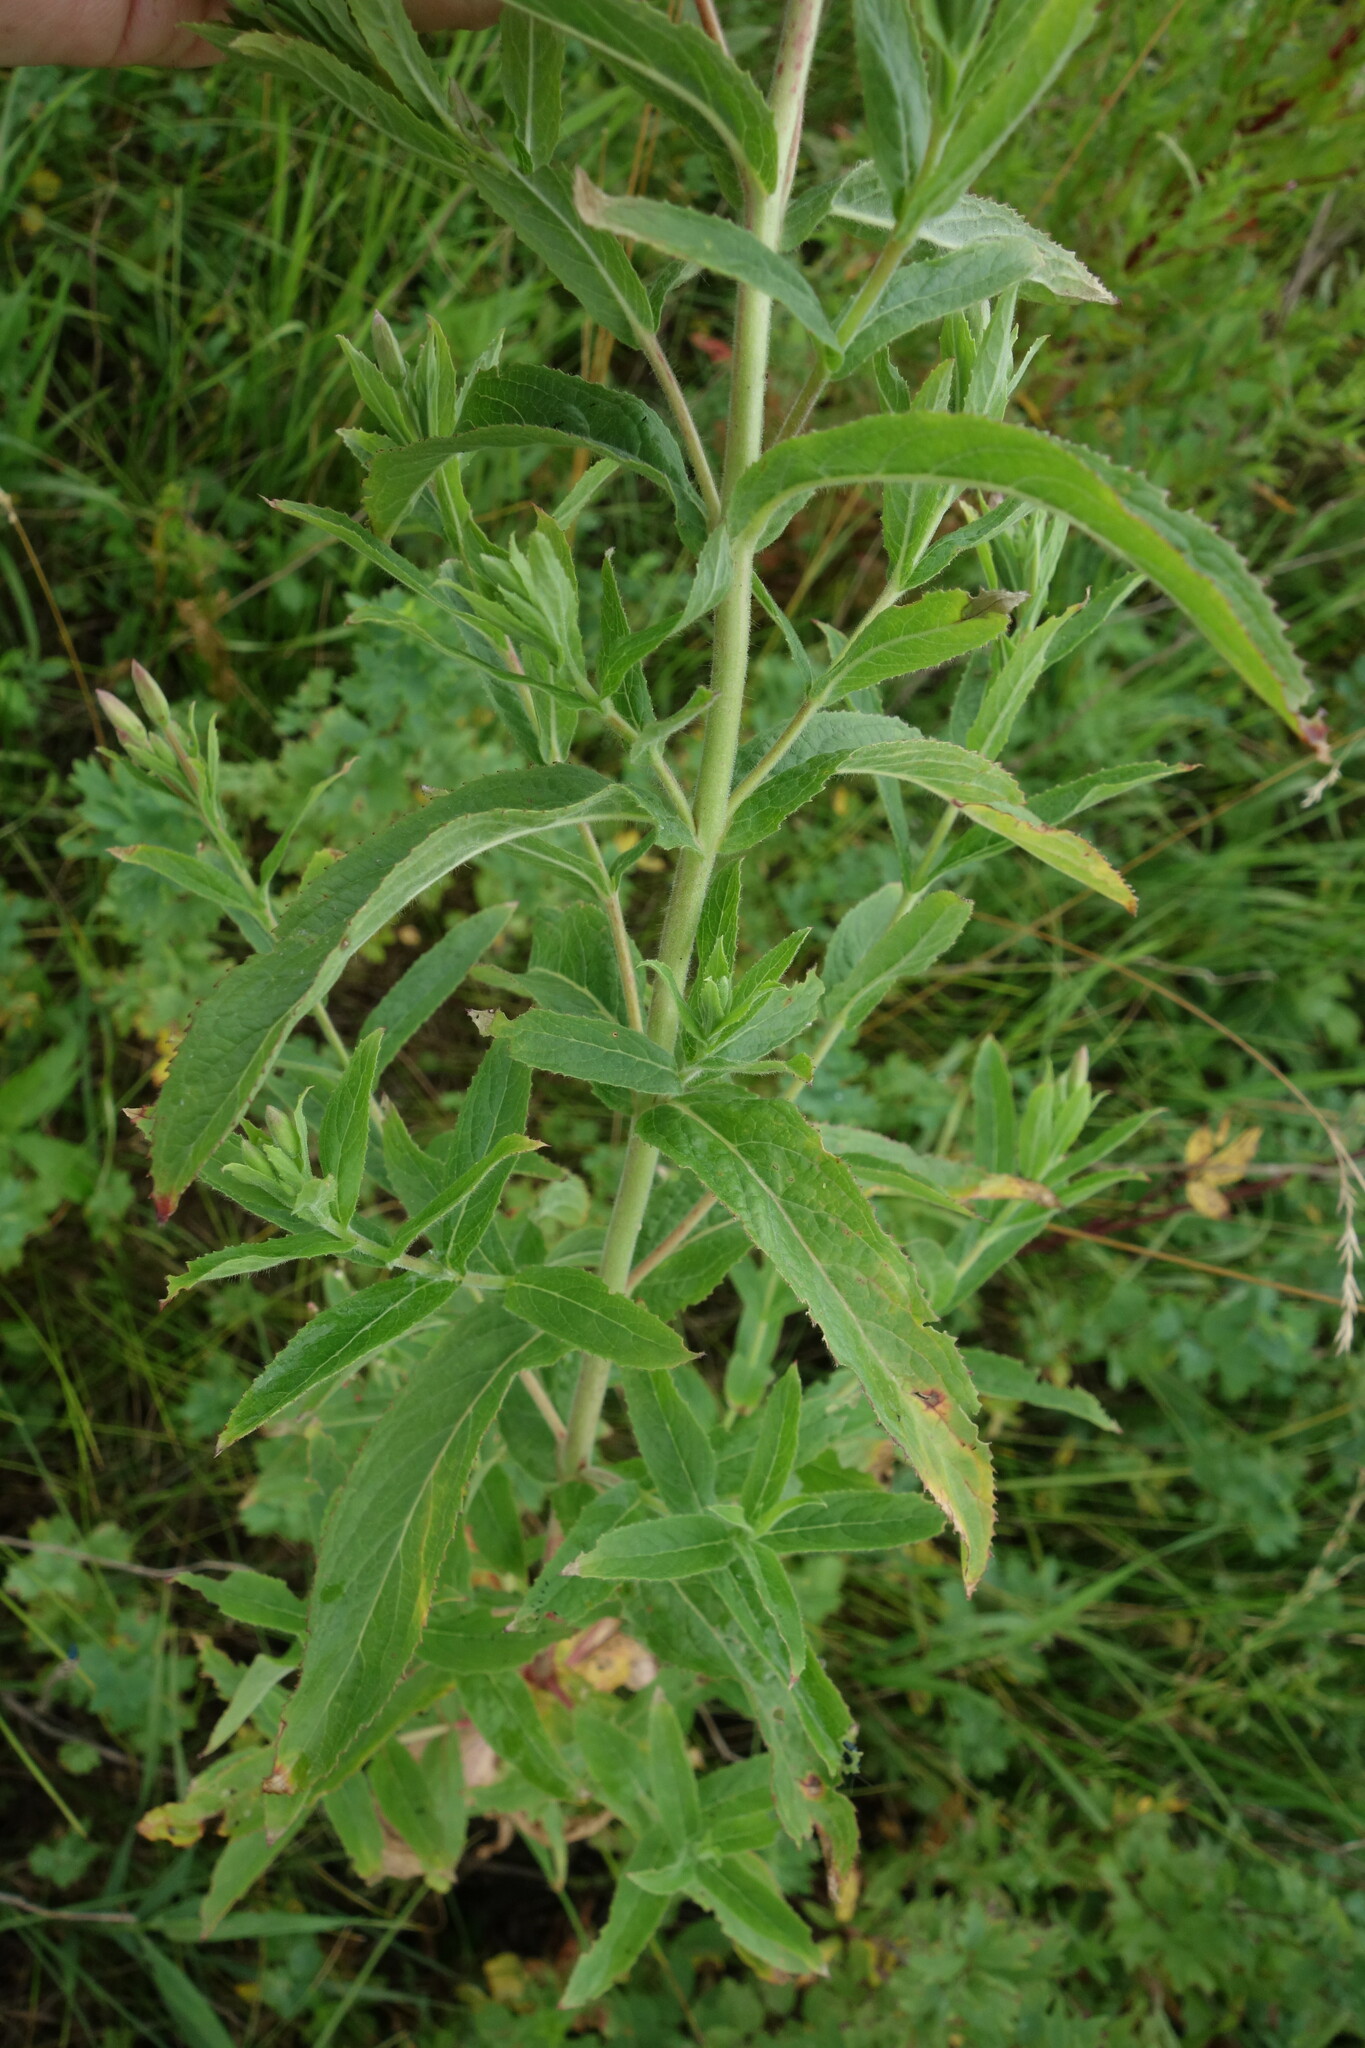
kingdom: Plantae
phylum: Tracheophyta
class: Magnoliopsida
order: Myrtales
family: Onagraceae
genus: Epilobium
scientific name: Epilobium hirsutum
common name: Great willowherb
